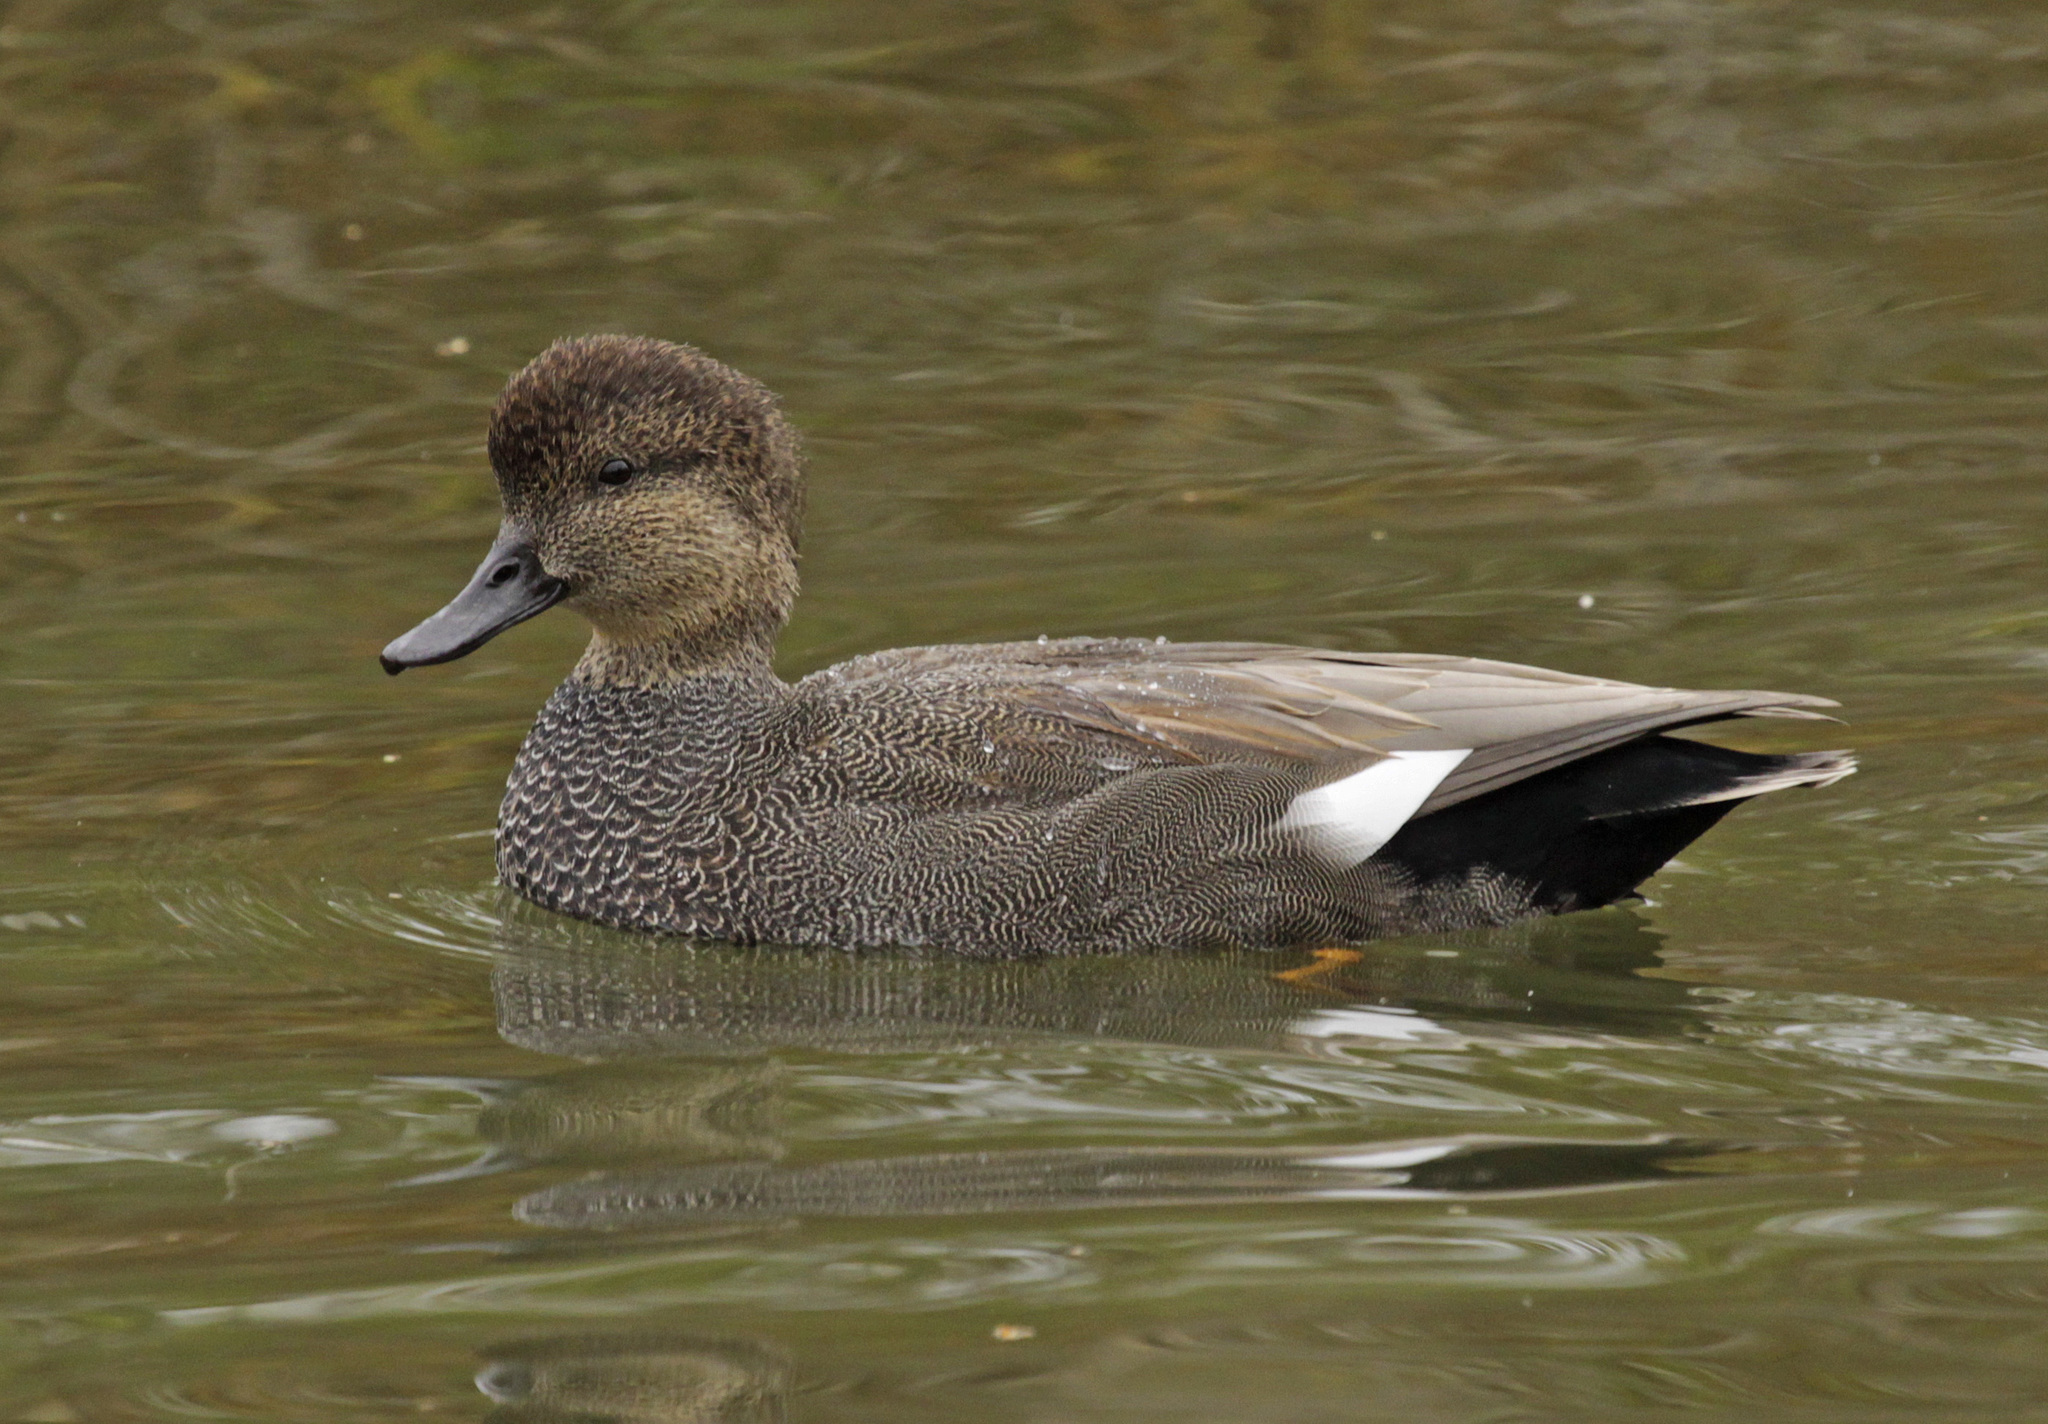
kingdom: Animalia
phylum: Chordata
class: Aves
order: Anseriformes
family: Anatidae
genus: Mareca
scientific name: Mareca strepera
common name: Gadwall
